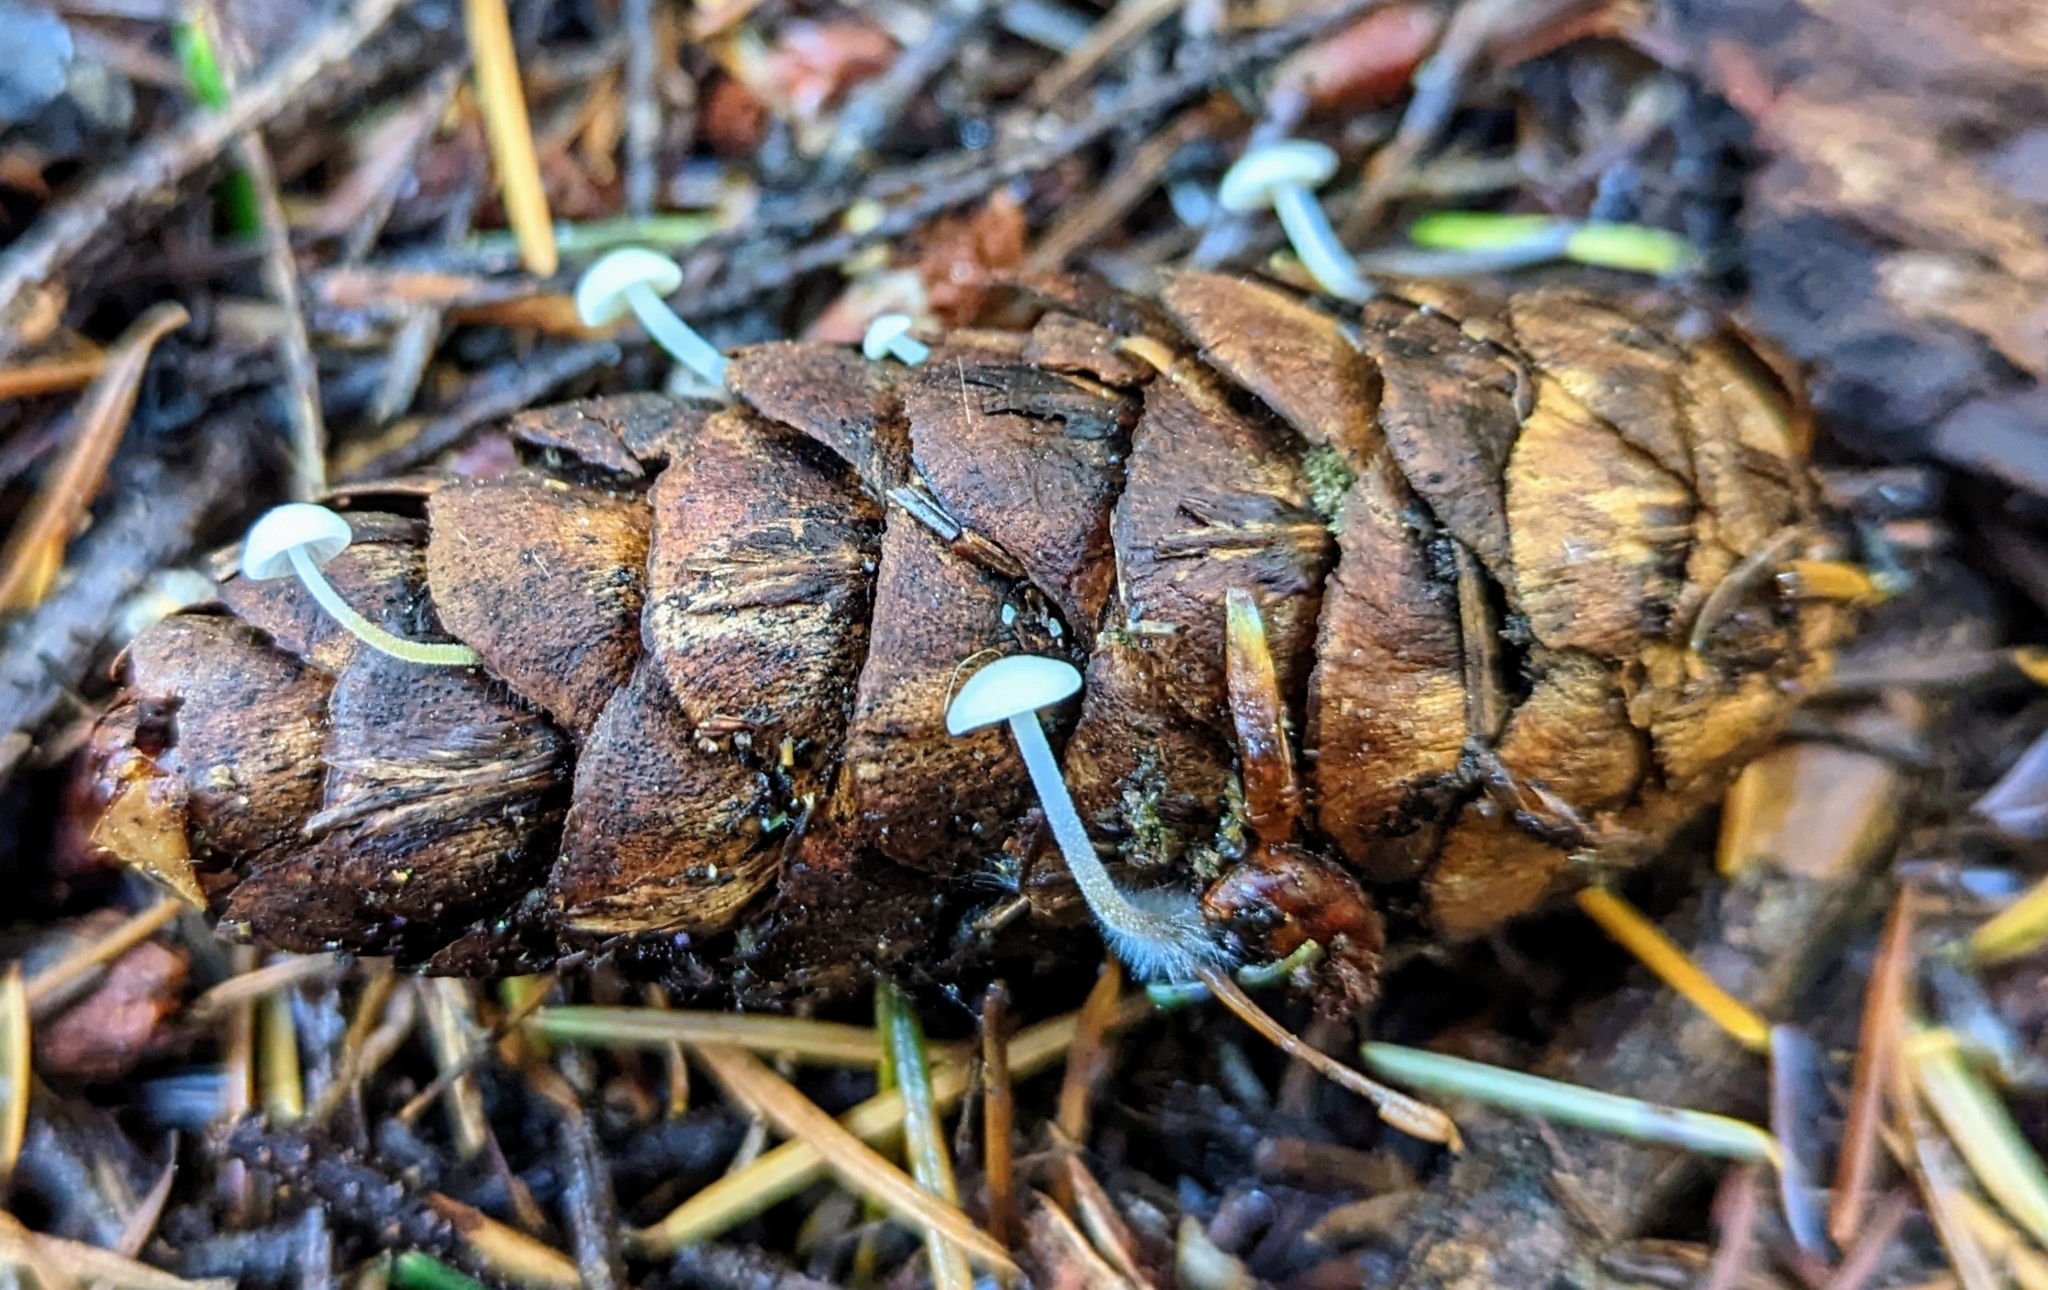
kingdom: Fungi
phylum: Basidiomycota
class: Agaricomycetes
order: Agaricales
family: Physalacriaceae
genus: Strobilurus
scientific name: Strobilurus trullisatus
